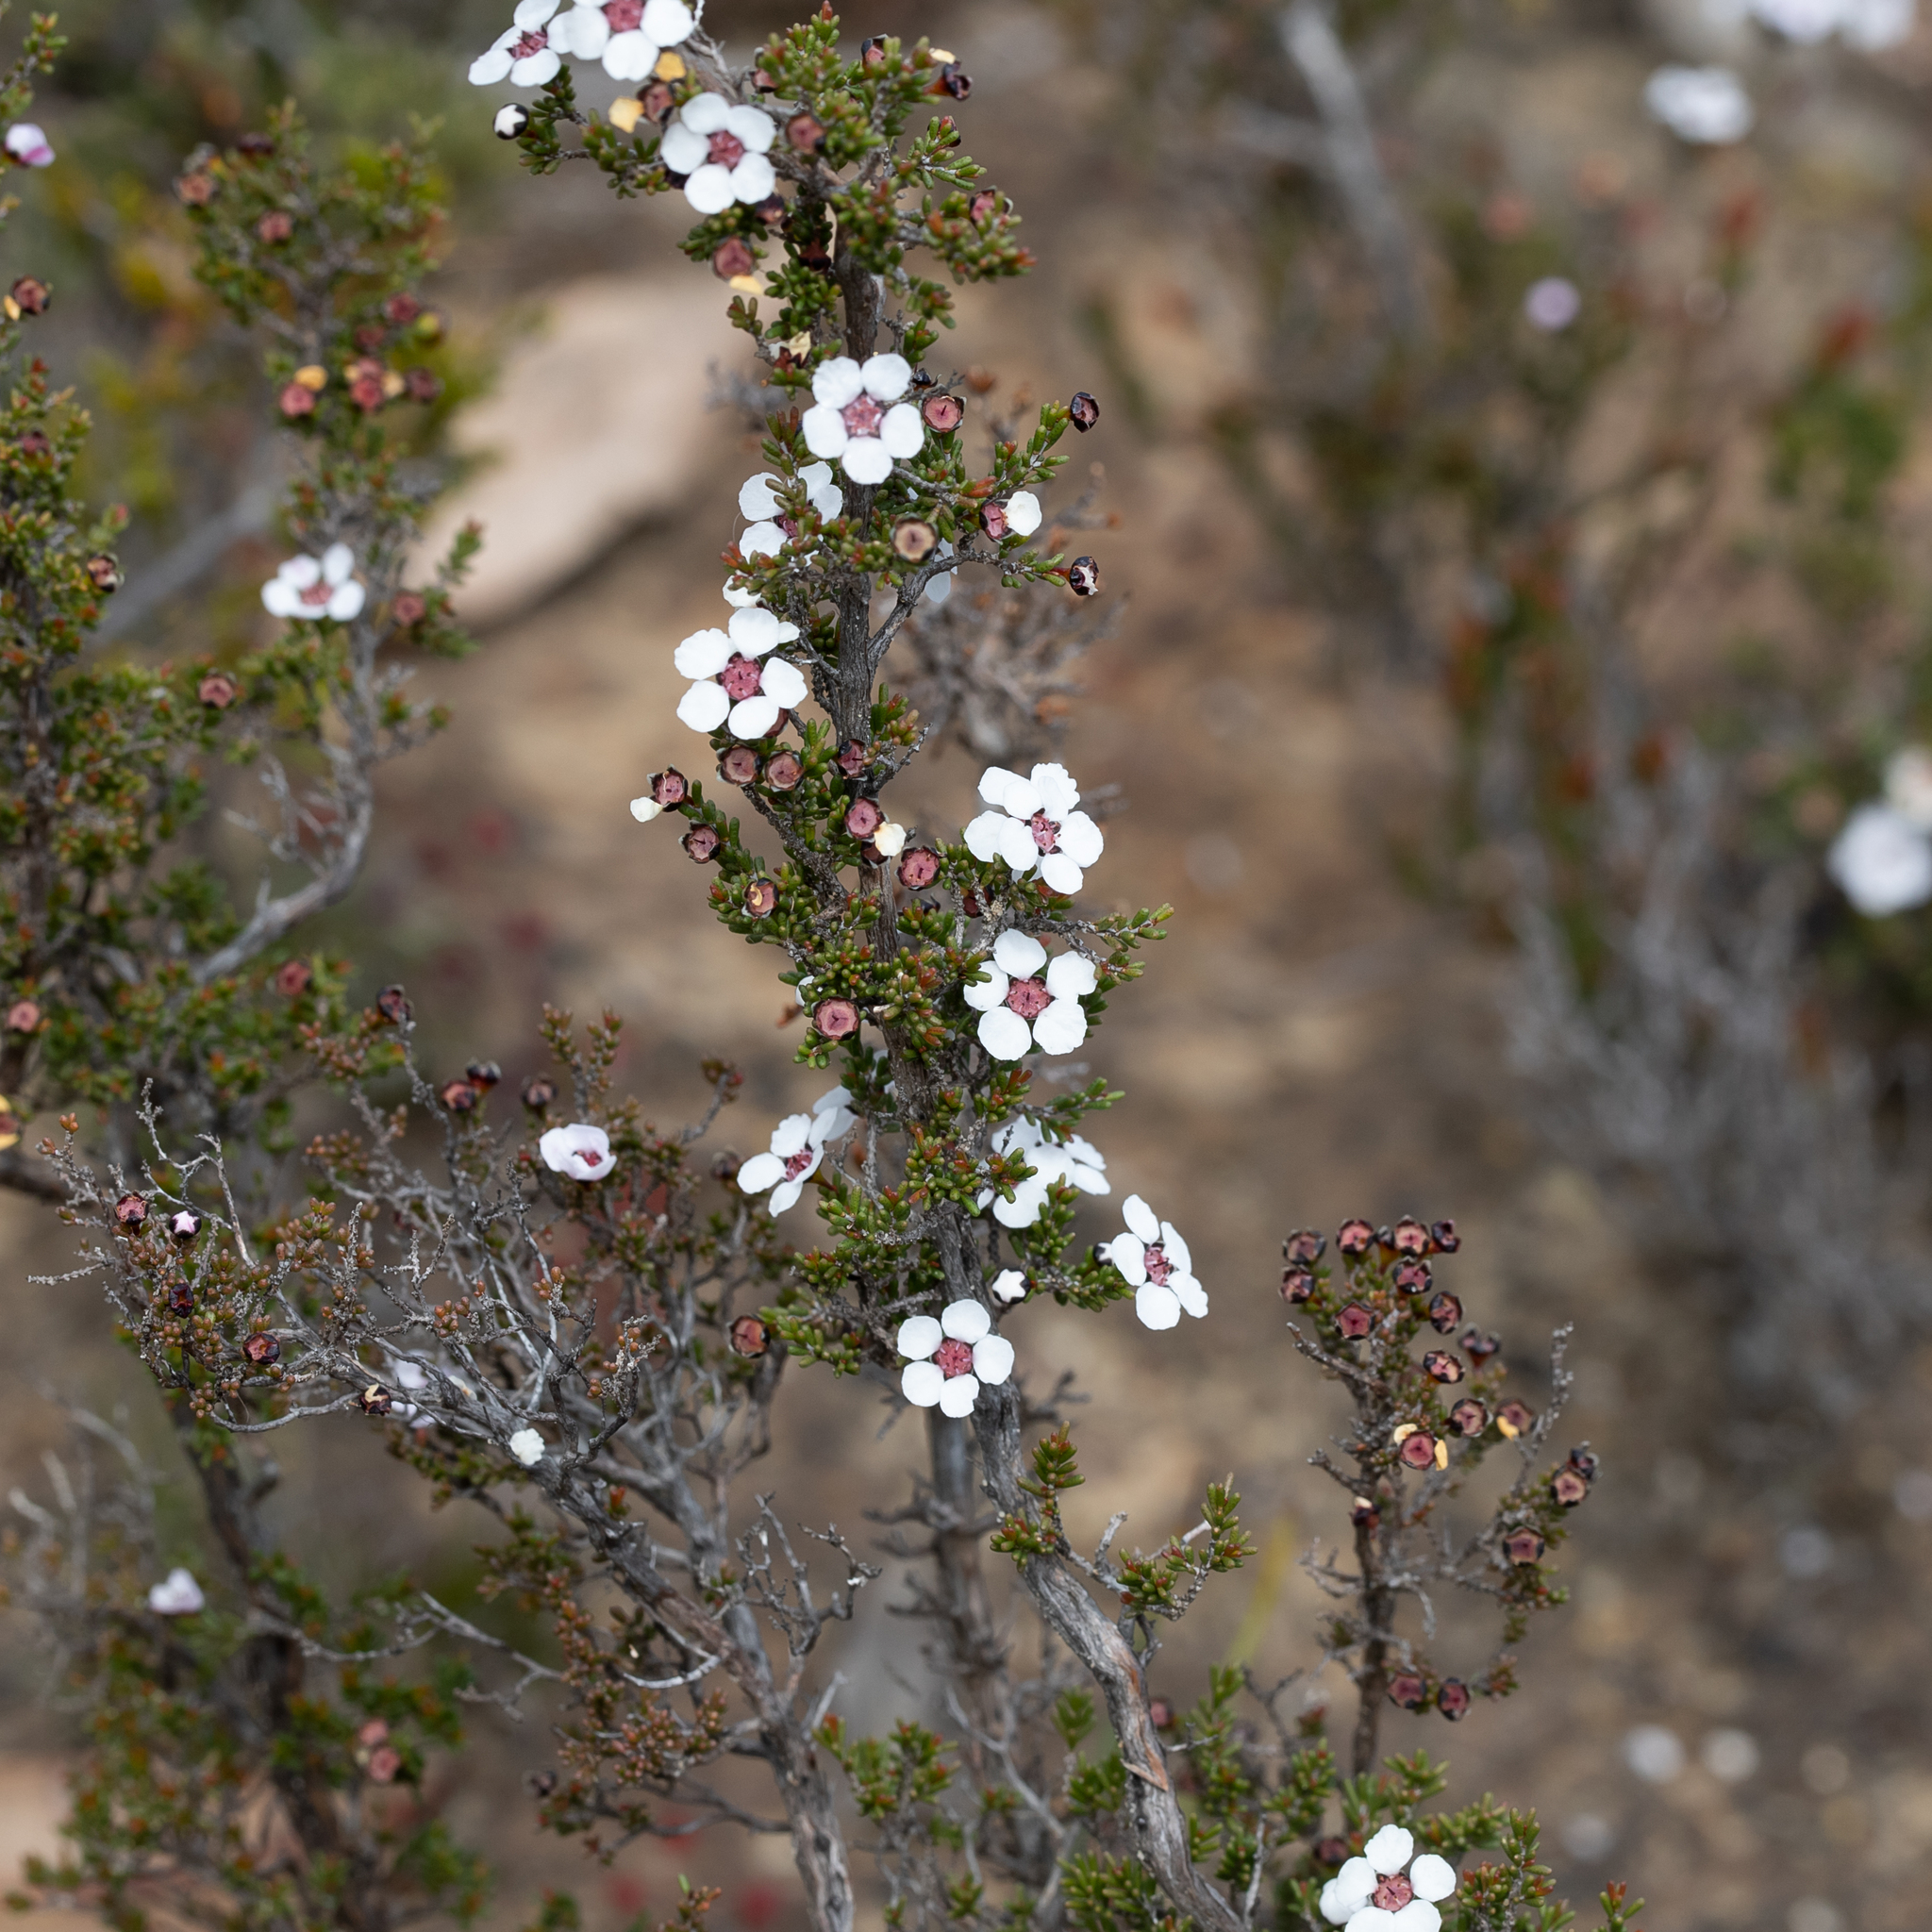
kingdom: Plantae
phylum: Tracheophyta
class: Magnoliopsida
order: Myrtales
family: Myrtaceae
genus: Rinzia
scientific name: Rinzia orientalis
